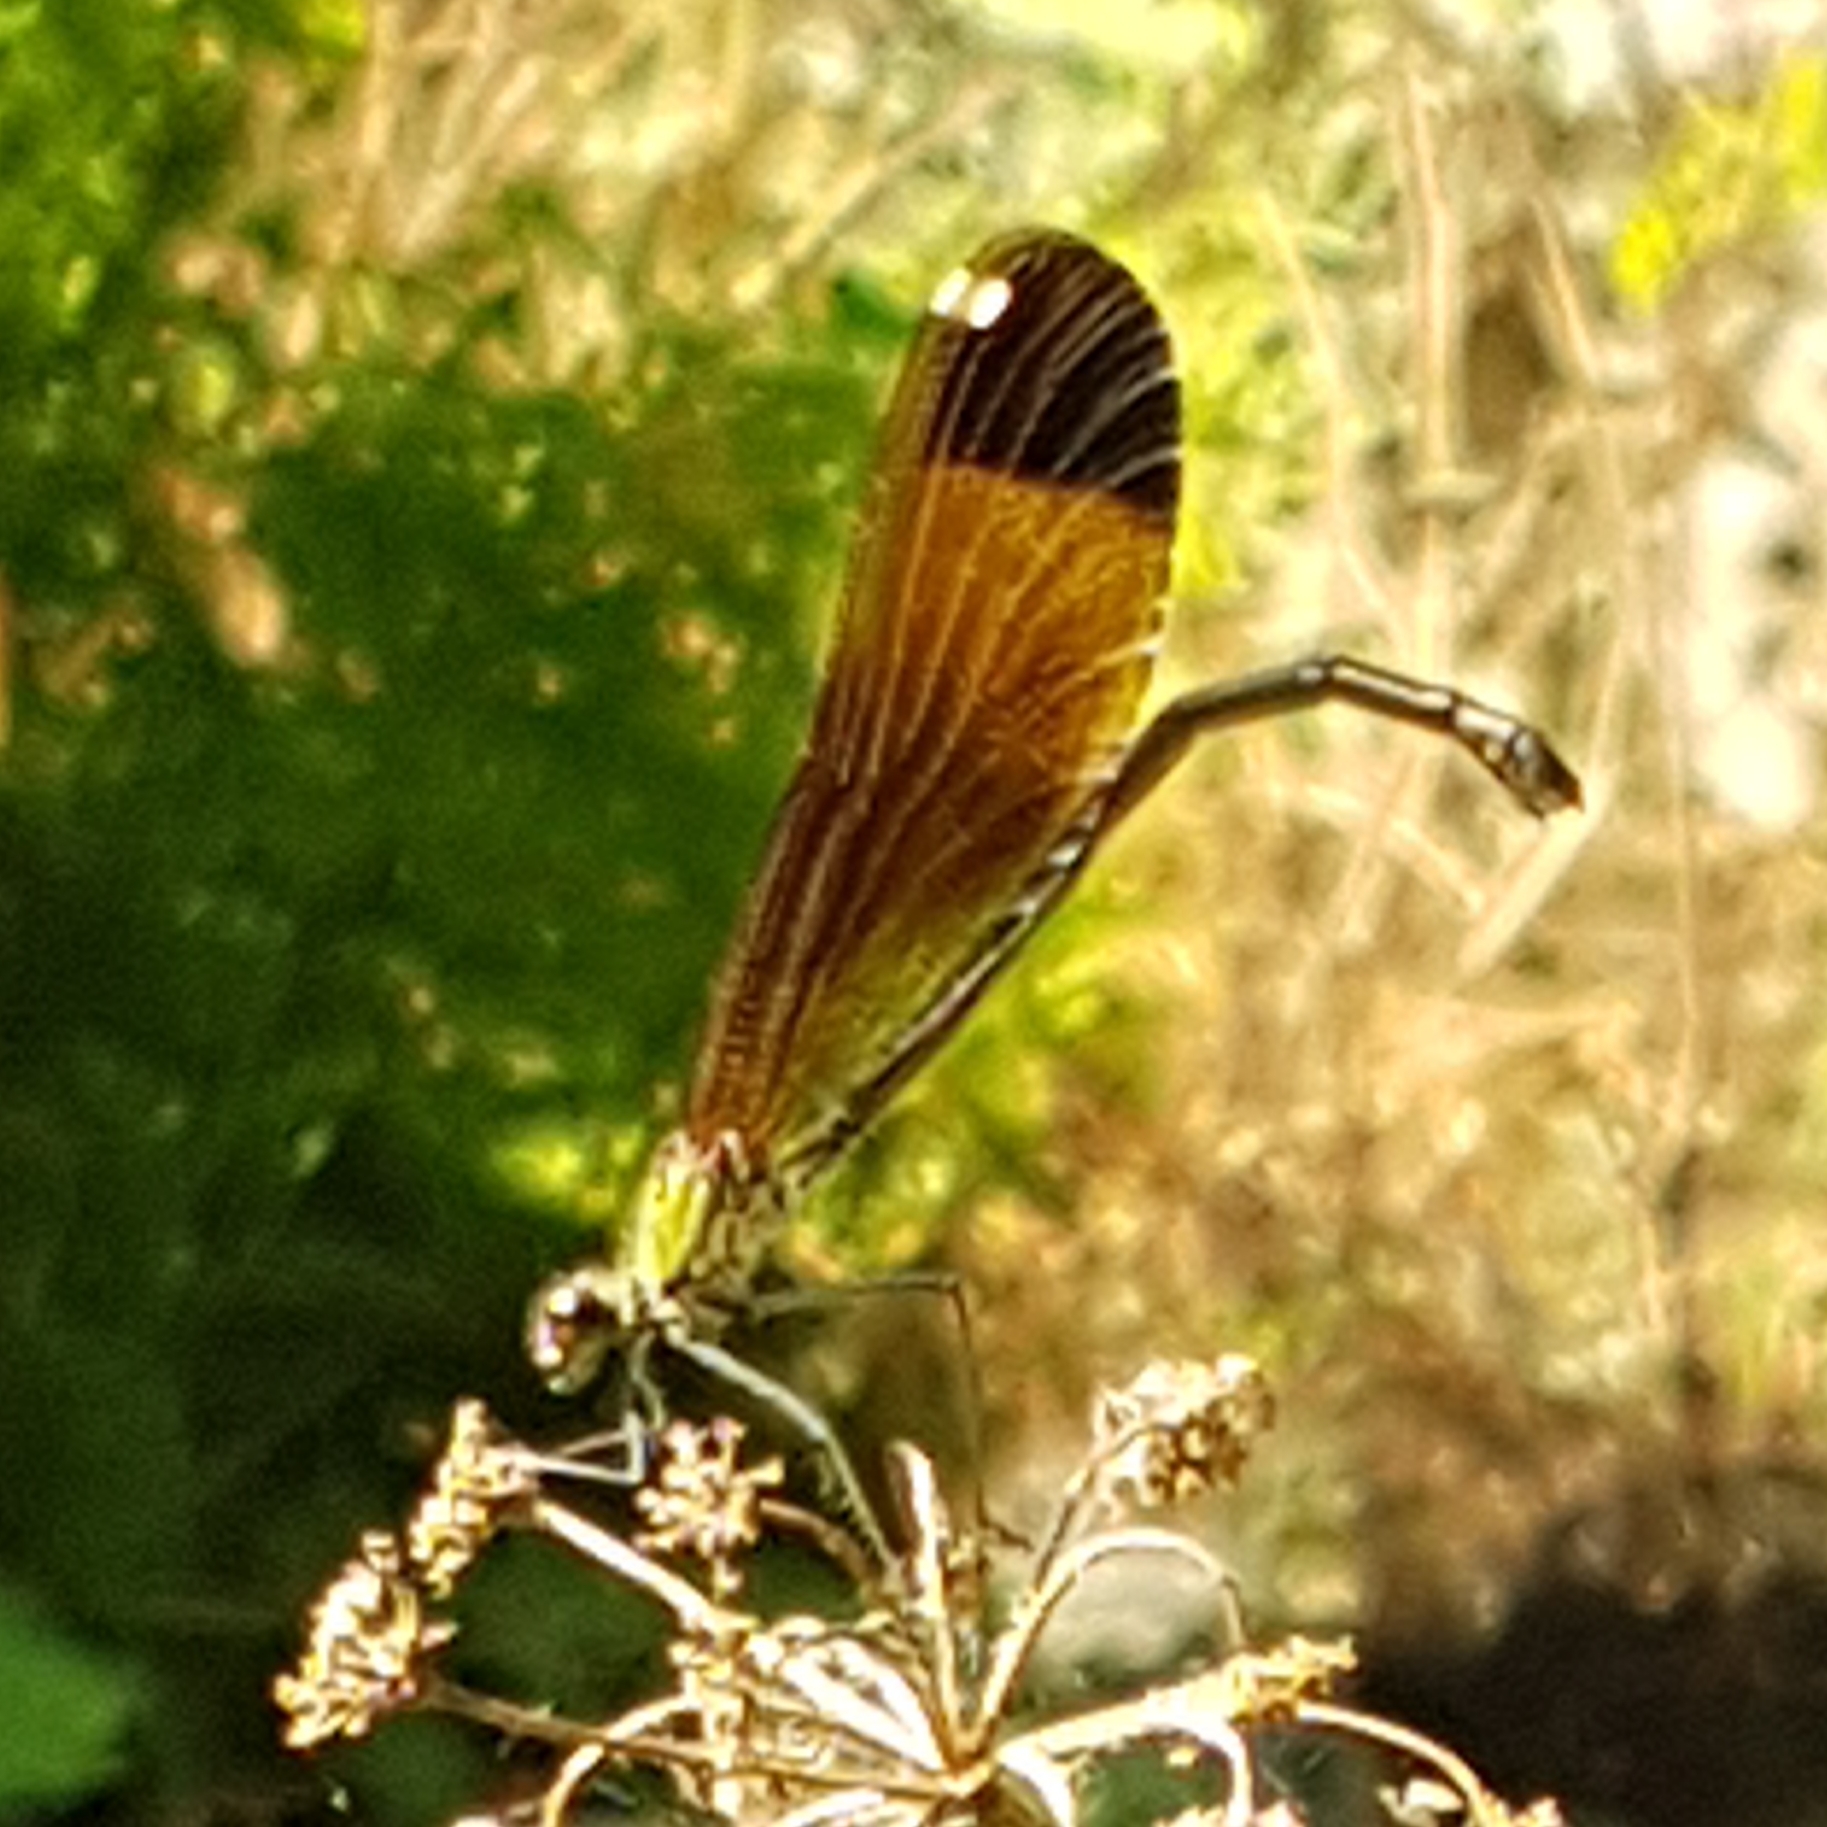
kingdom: Animalia
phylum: Arthropoda
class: Insecta
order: Odonata
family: Calopterygidae
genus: Calopteryx
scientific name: Calopteryx haemorrhoidalis
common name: Copper demoiselle
